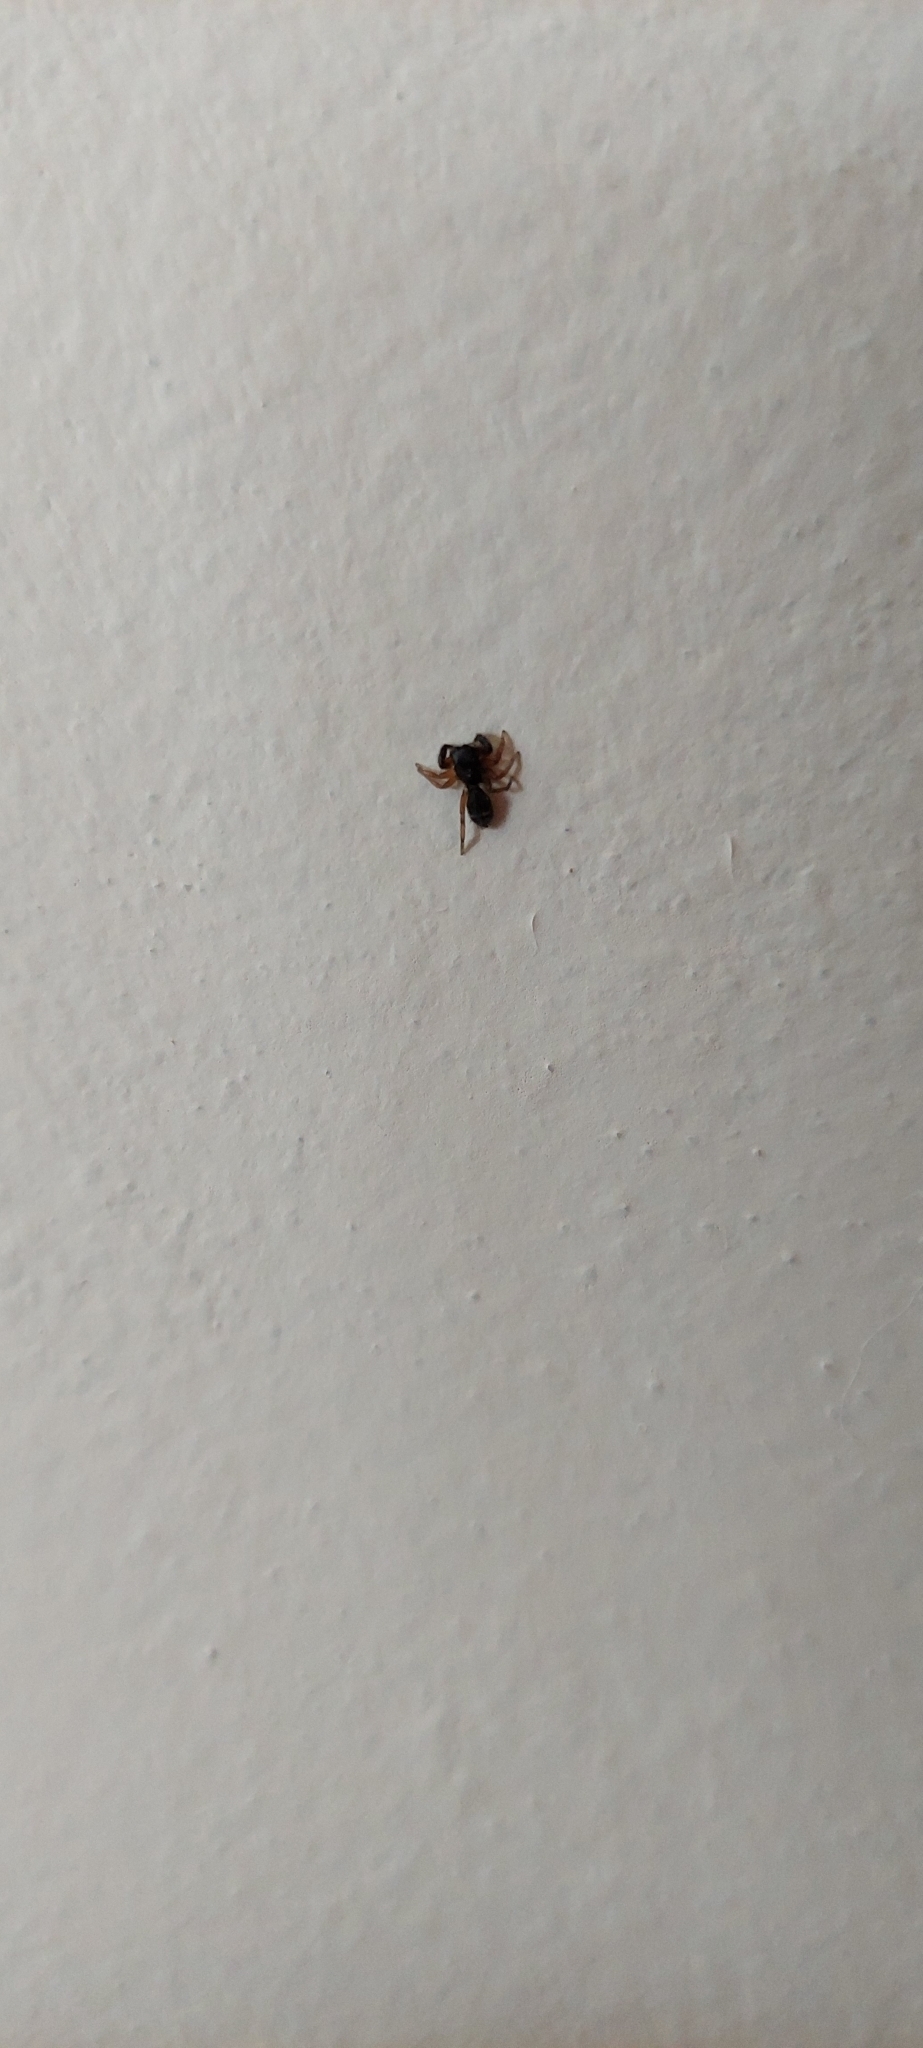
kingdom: Animalia
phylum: Arthropoda
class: Arachnida
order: Araneae
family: Salticidae
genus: Breda
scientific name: Breda tristis
